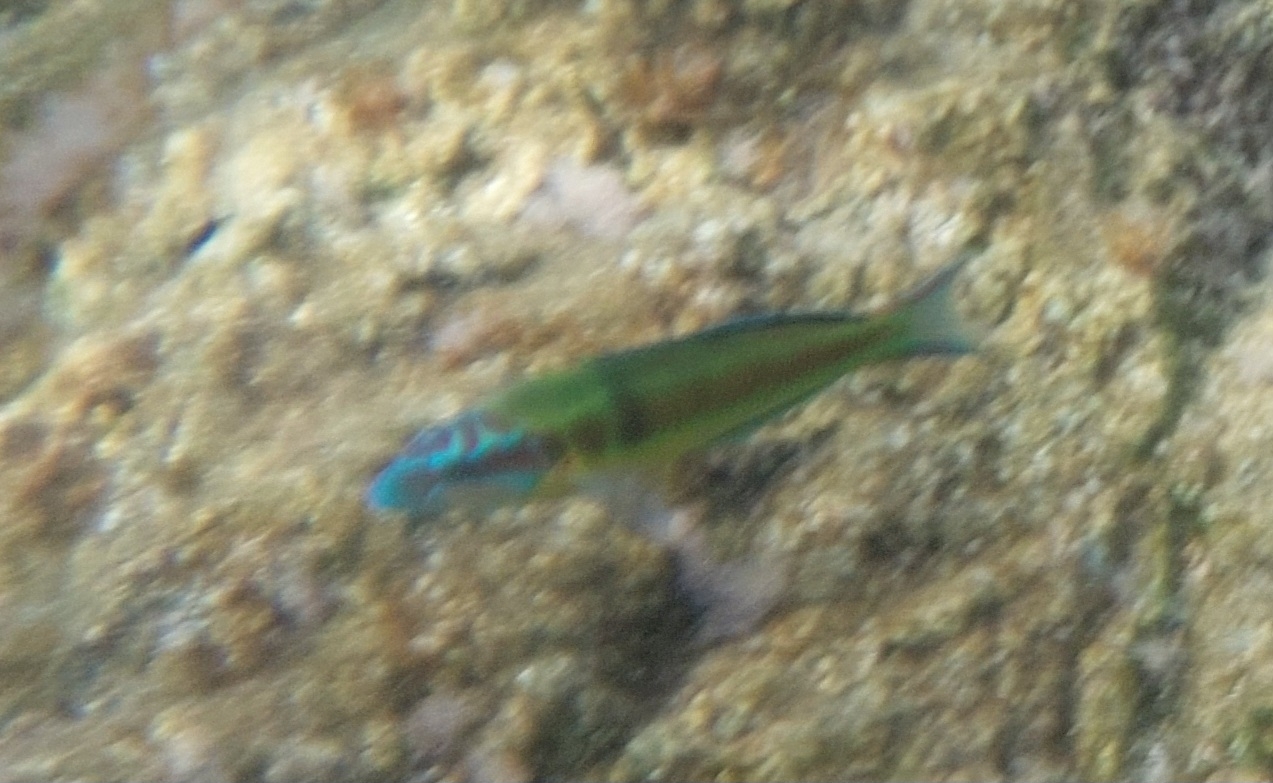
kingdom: Animalia
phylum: Chordata
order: Perciformes
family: Labridae
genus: Thalassoma
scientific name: Thalassoma pavo
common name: Ornate wrasse
